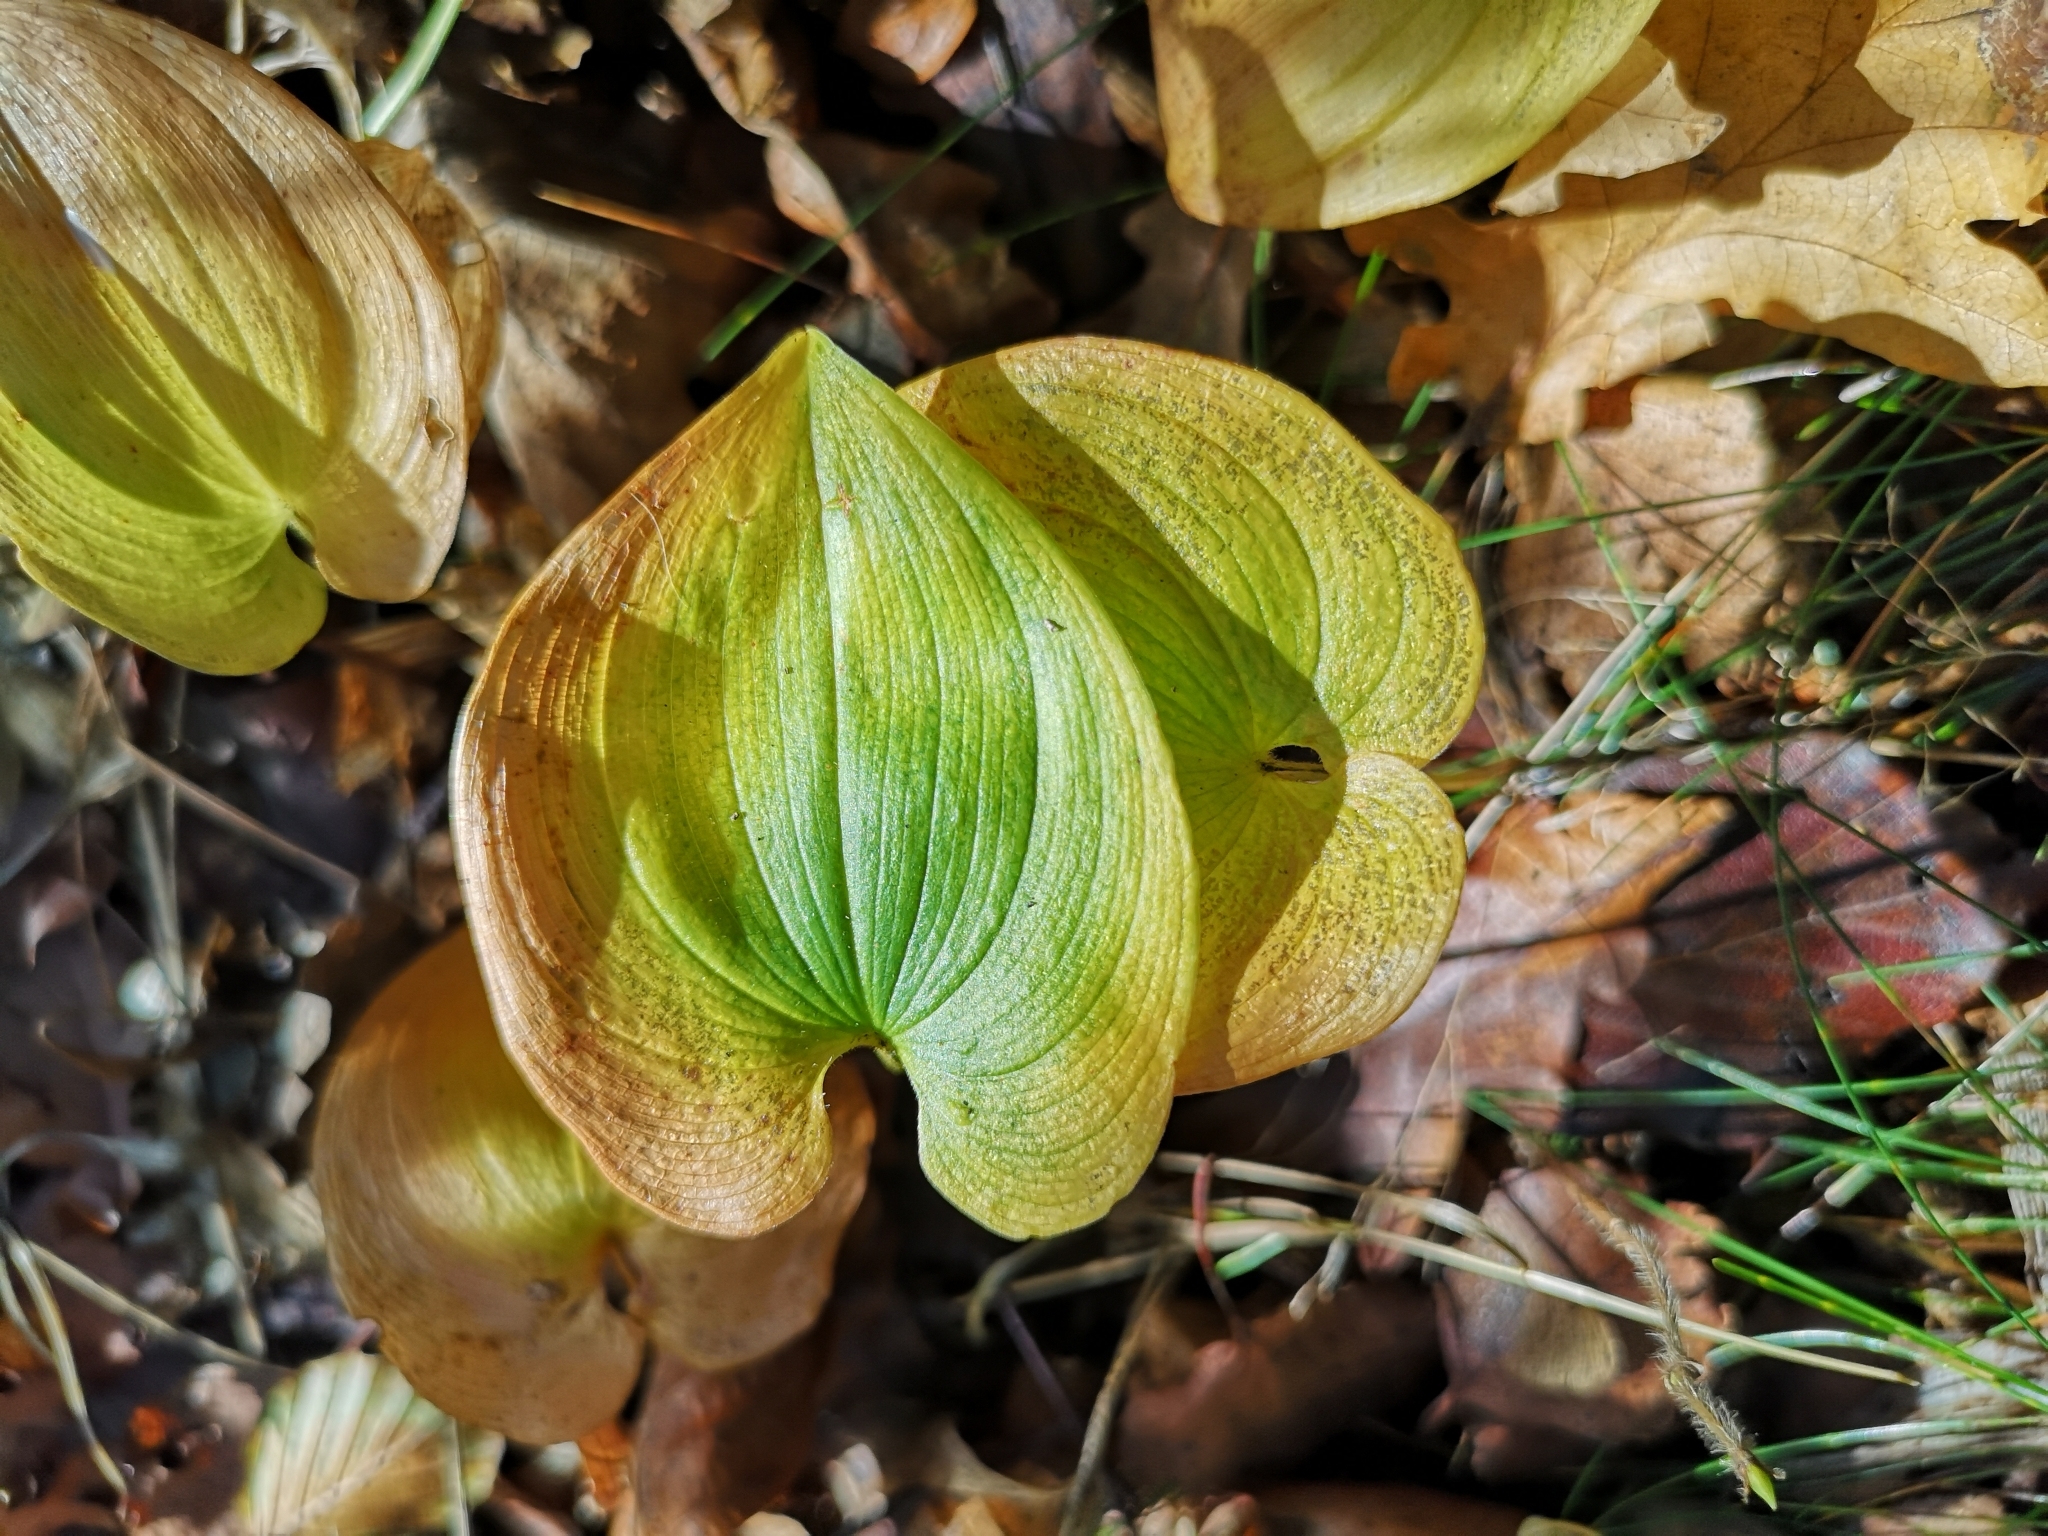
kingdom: Plantae
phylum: Tracheophyta
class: Liliopsida
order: Asparagales
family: Asparagaceae
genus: Maianthemum
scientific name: Maianthemum bifolium
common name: May lily
